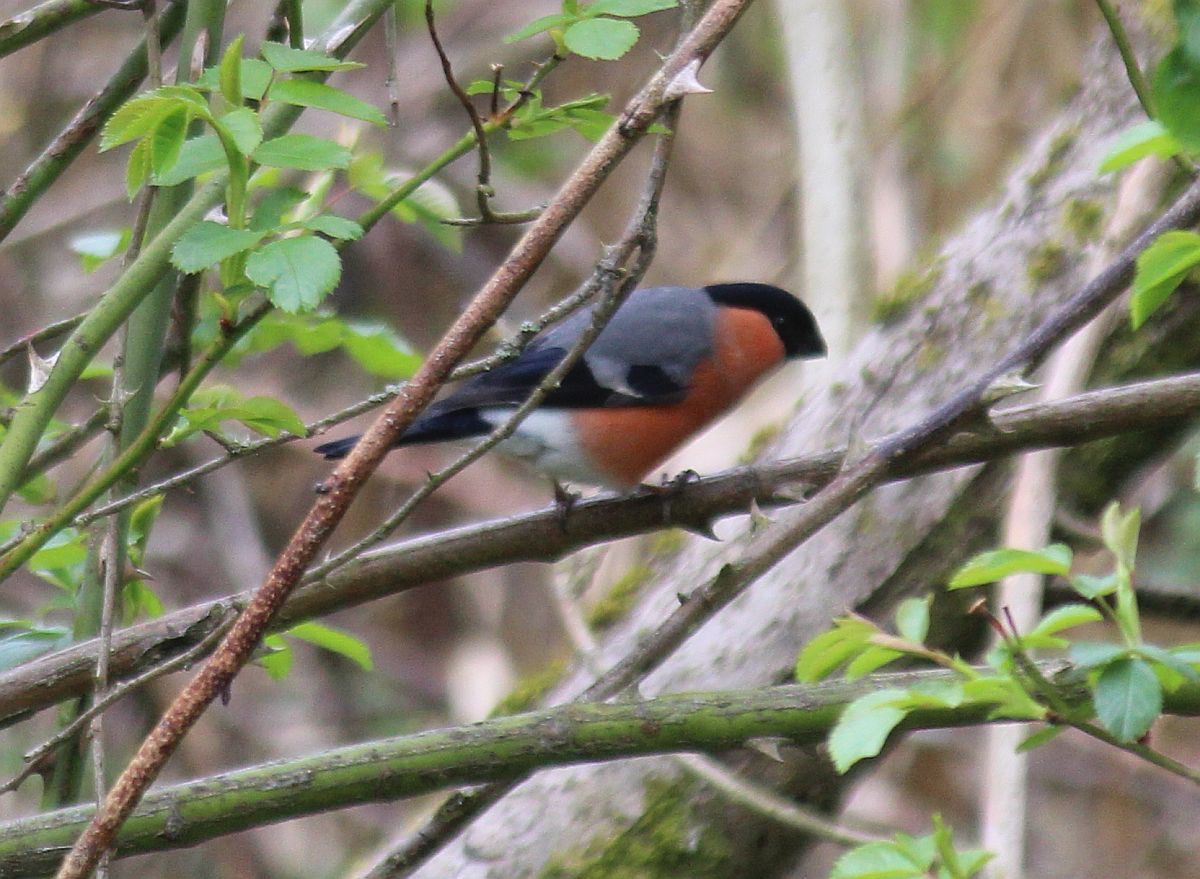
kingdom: Animalia
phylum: Chordata
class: Aves
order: Passeriformes
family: Fringillidae
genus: Pyrrhula
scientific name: Pyrrhula pyrrhula
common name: Eurasian bullfinch
